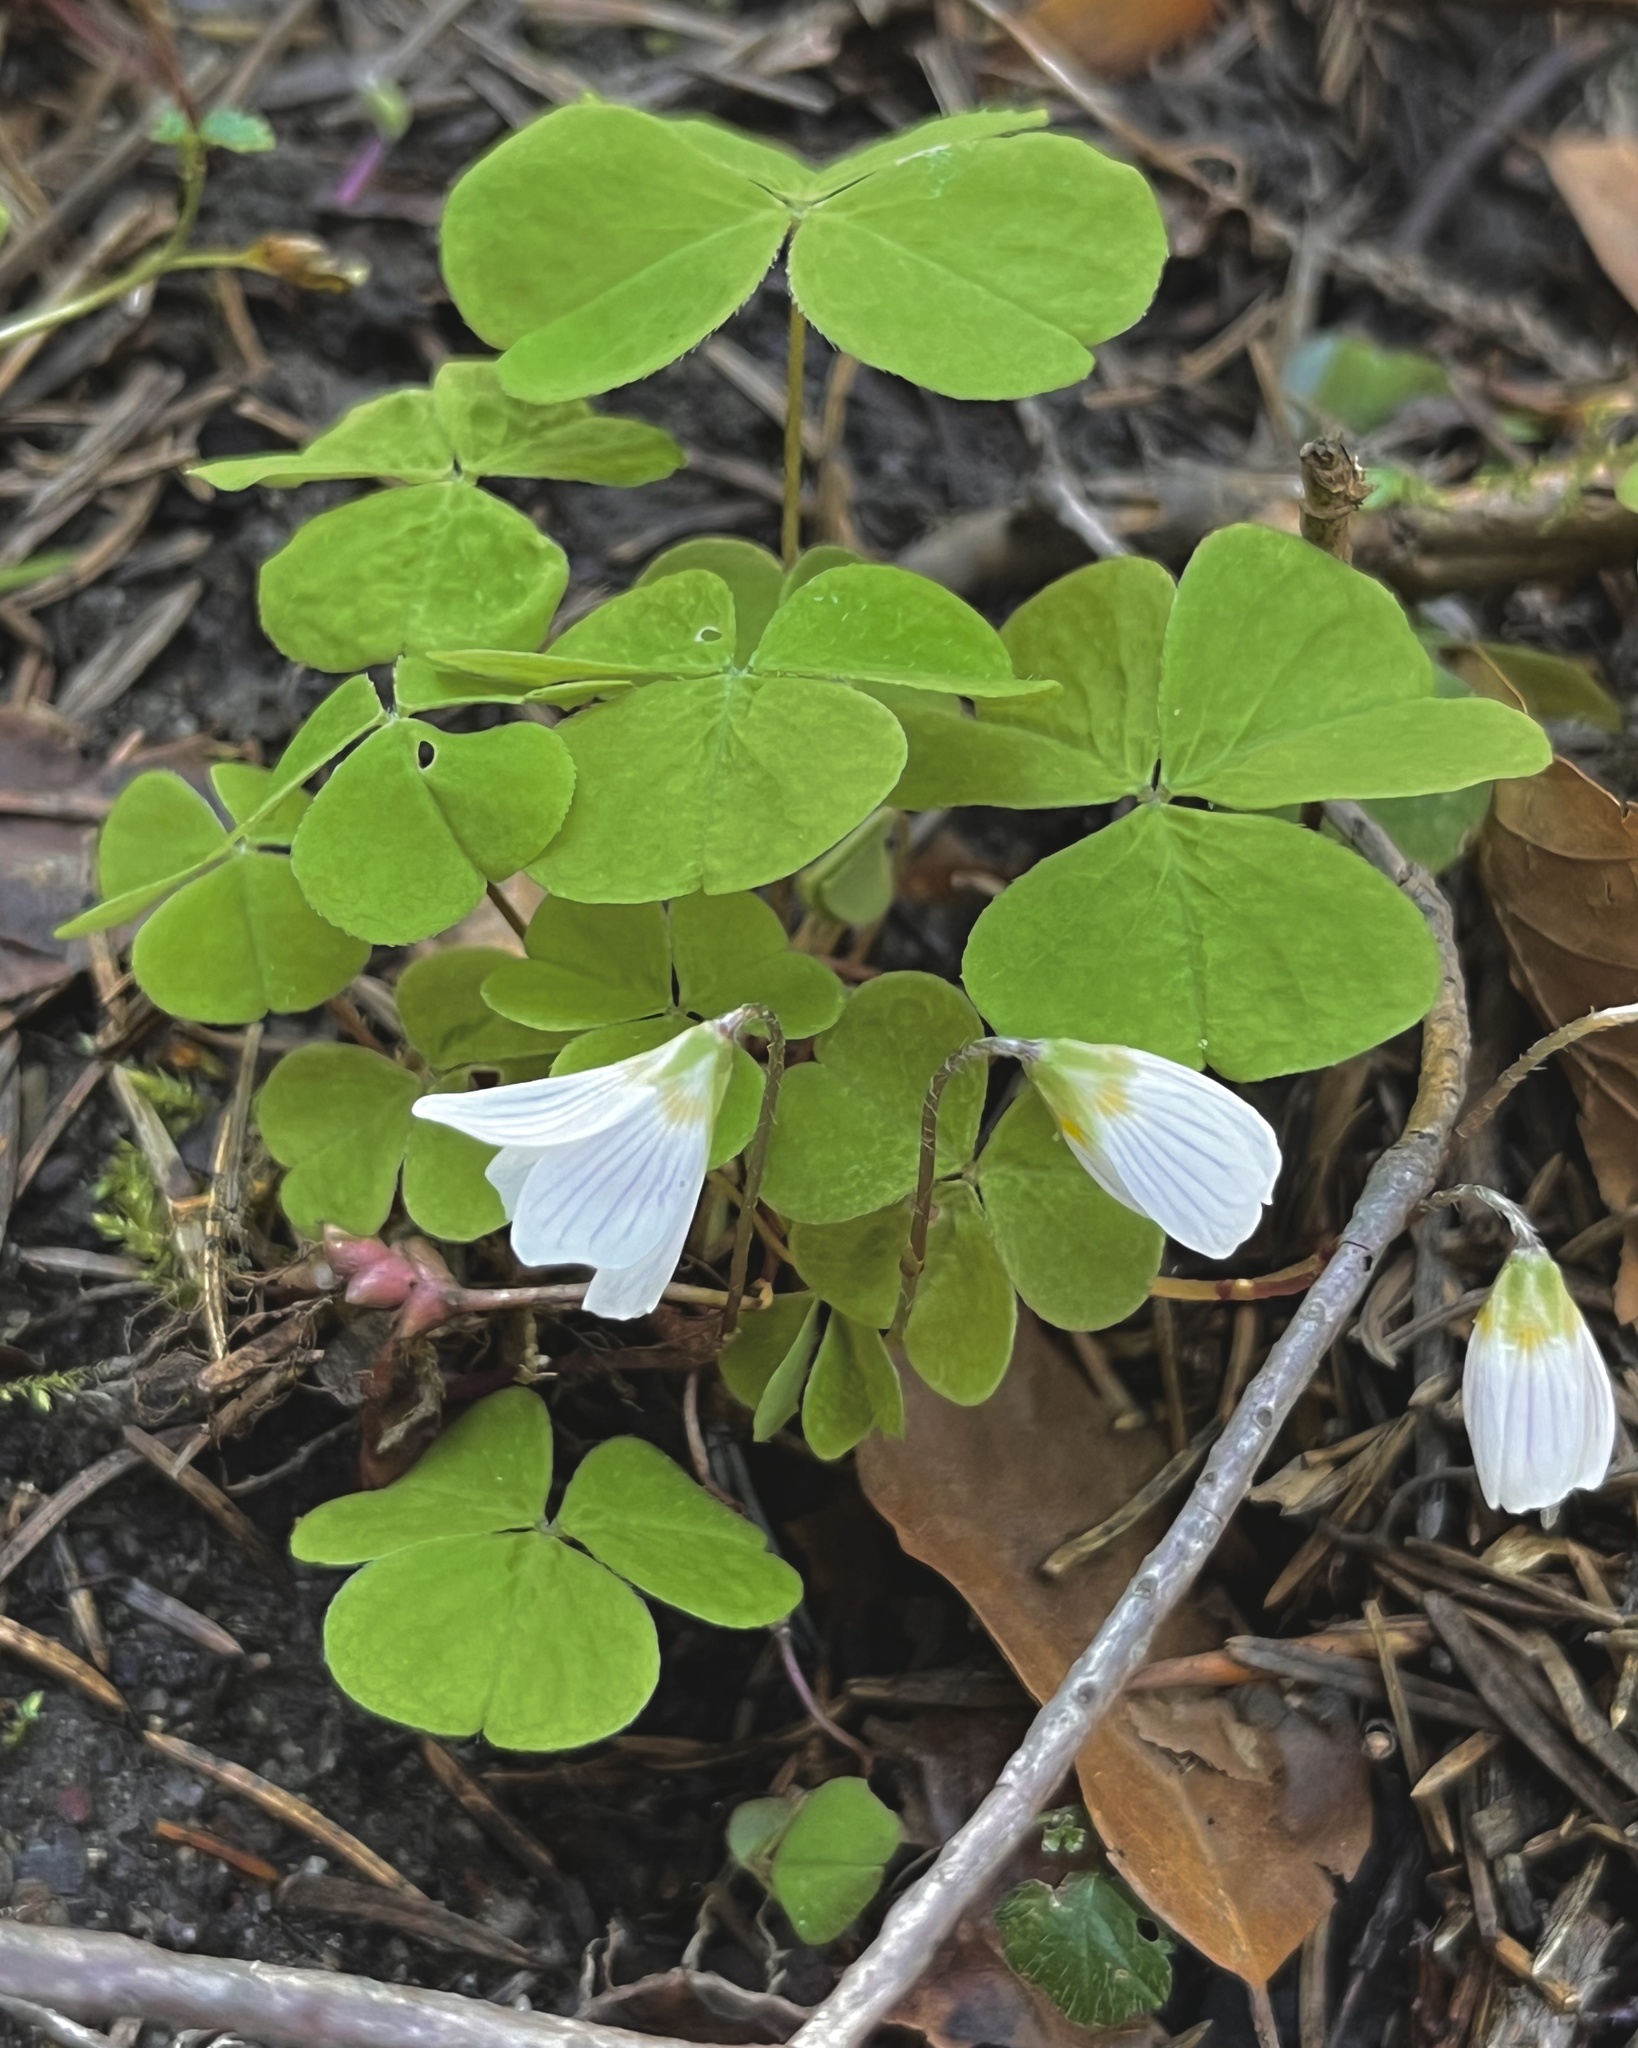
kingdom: Plantae
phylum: Tracheophyta
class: Magnoliopsida
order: Oxalidales
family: Oxalidaceae
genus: Oxalis
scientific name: Oxalis acetosella
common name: Wood-sorrel
